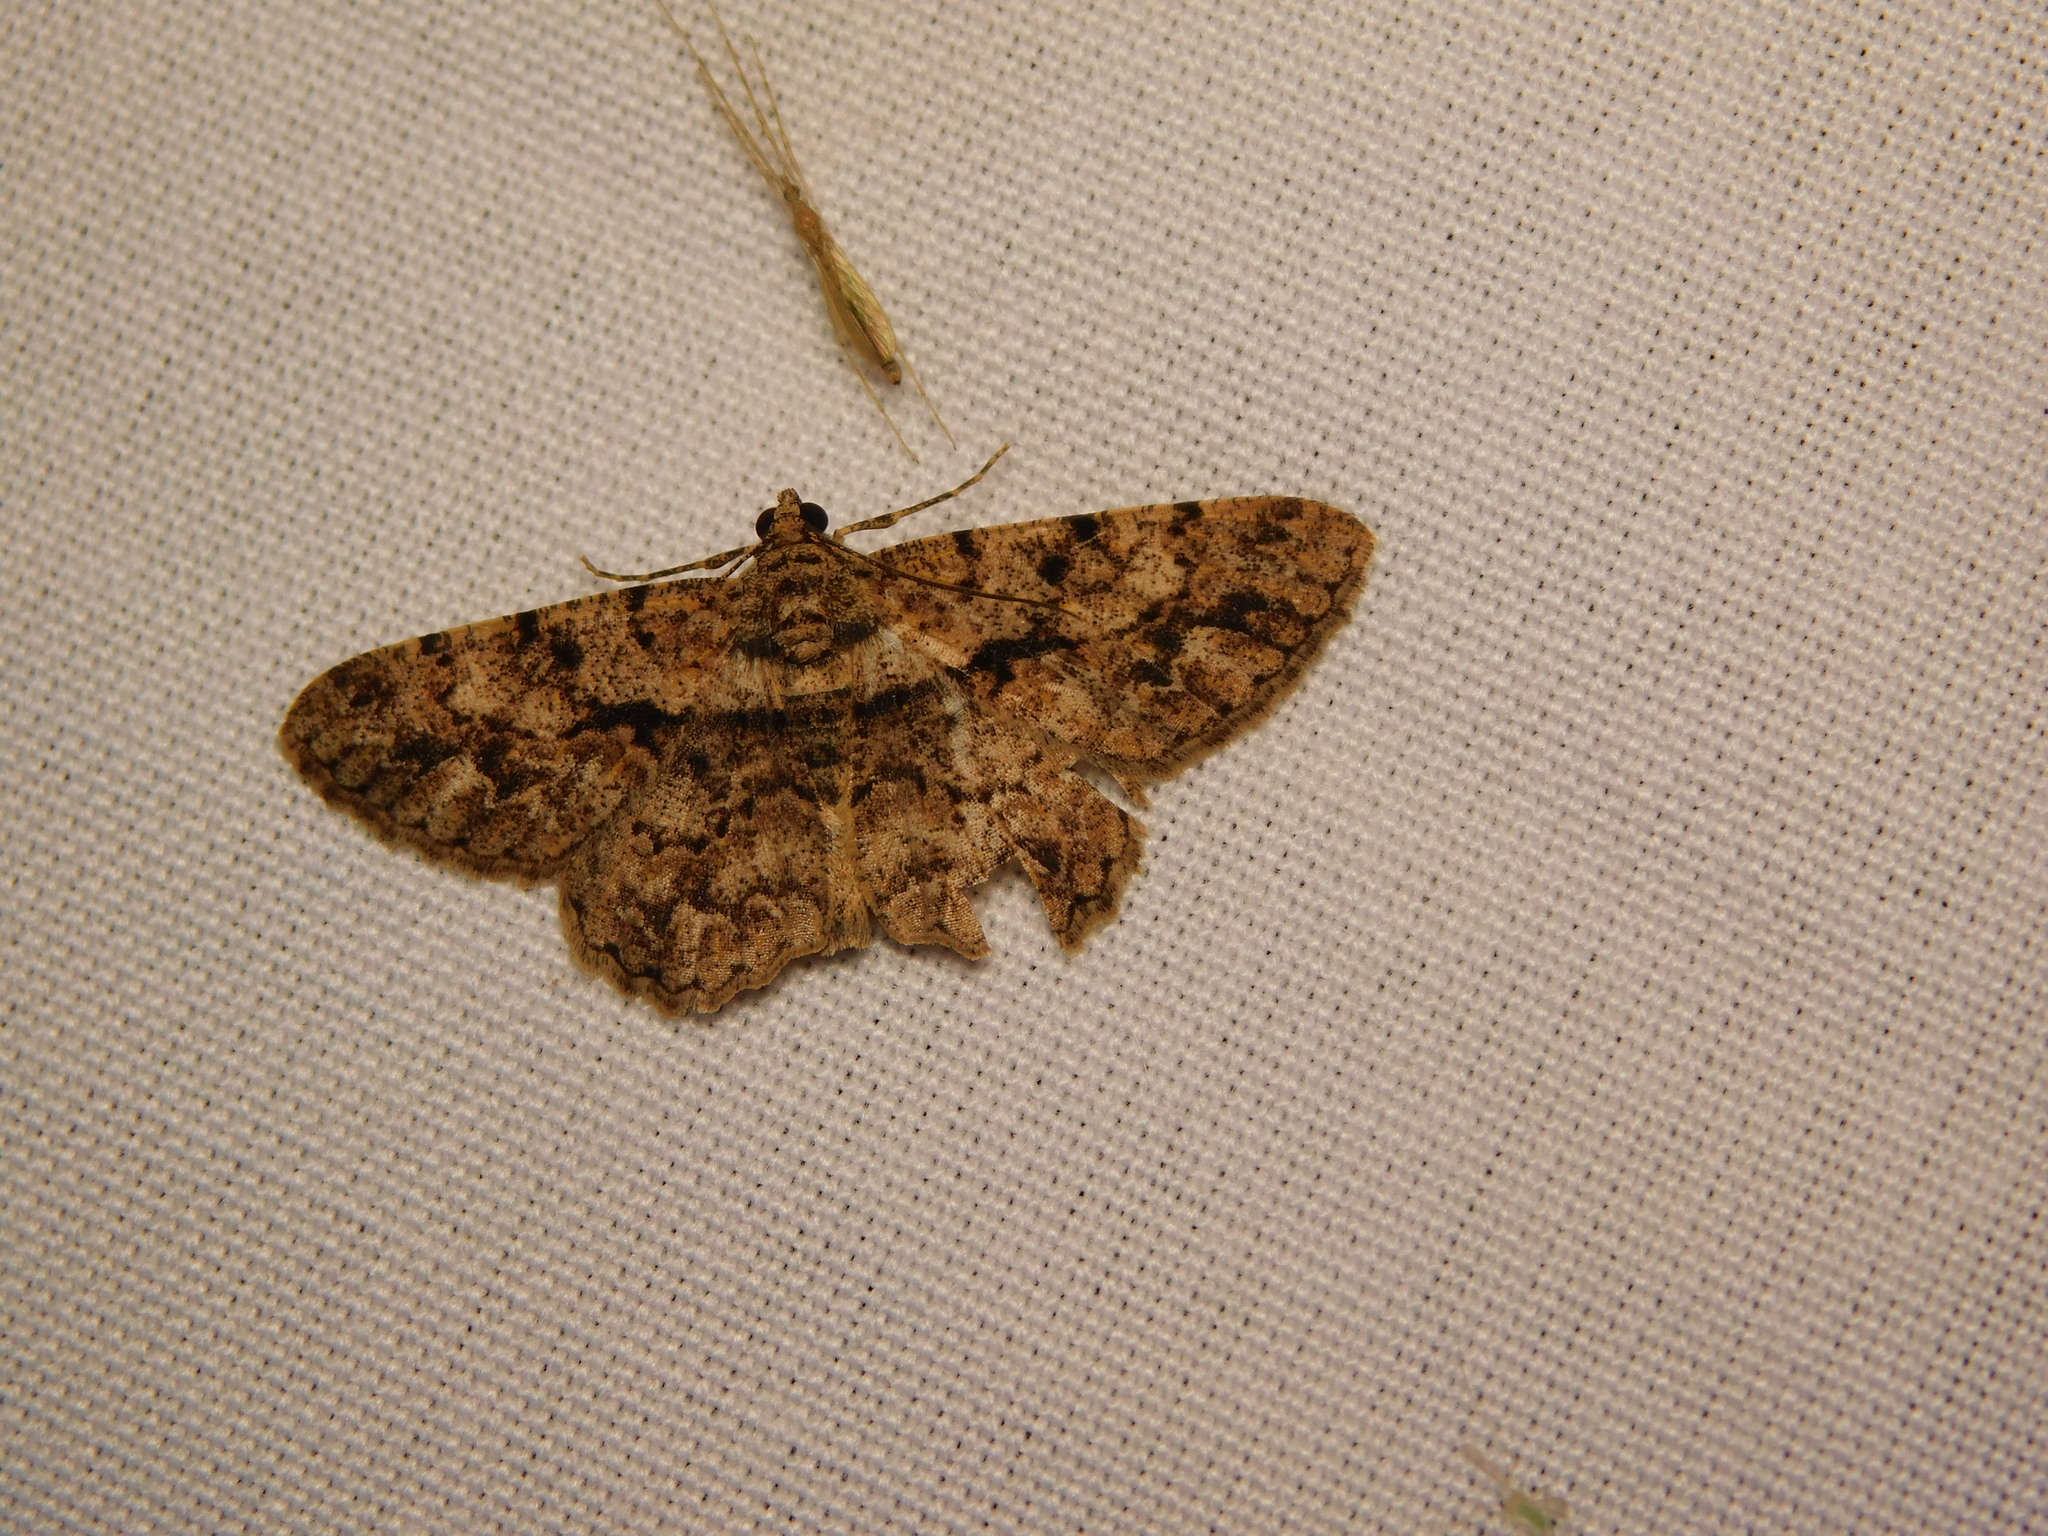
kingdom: Animalia
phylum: Arthropoda
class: Insecta
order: Lepidoptera
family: Geometridae
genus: Psilalcis
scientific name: Psilalcis breta
